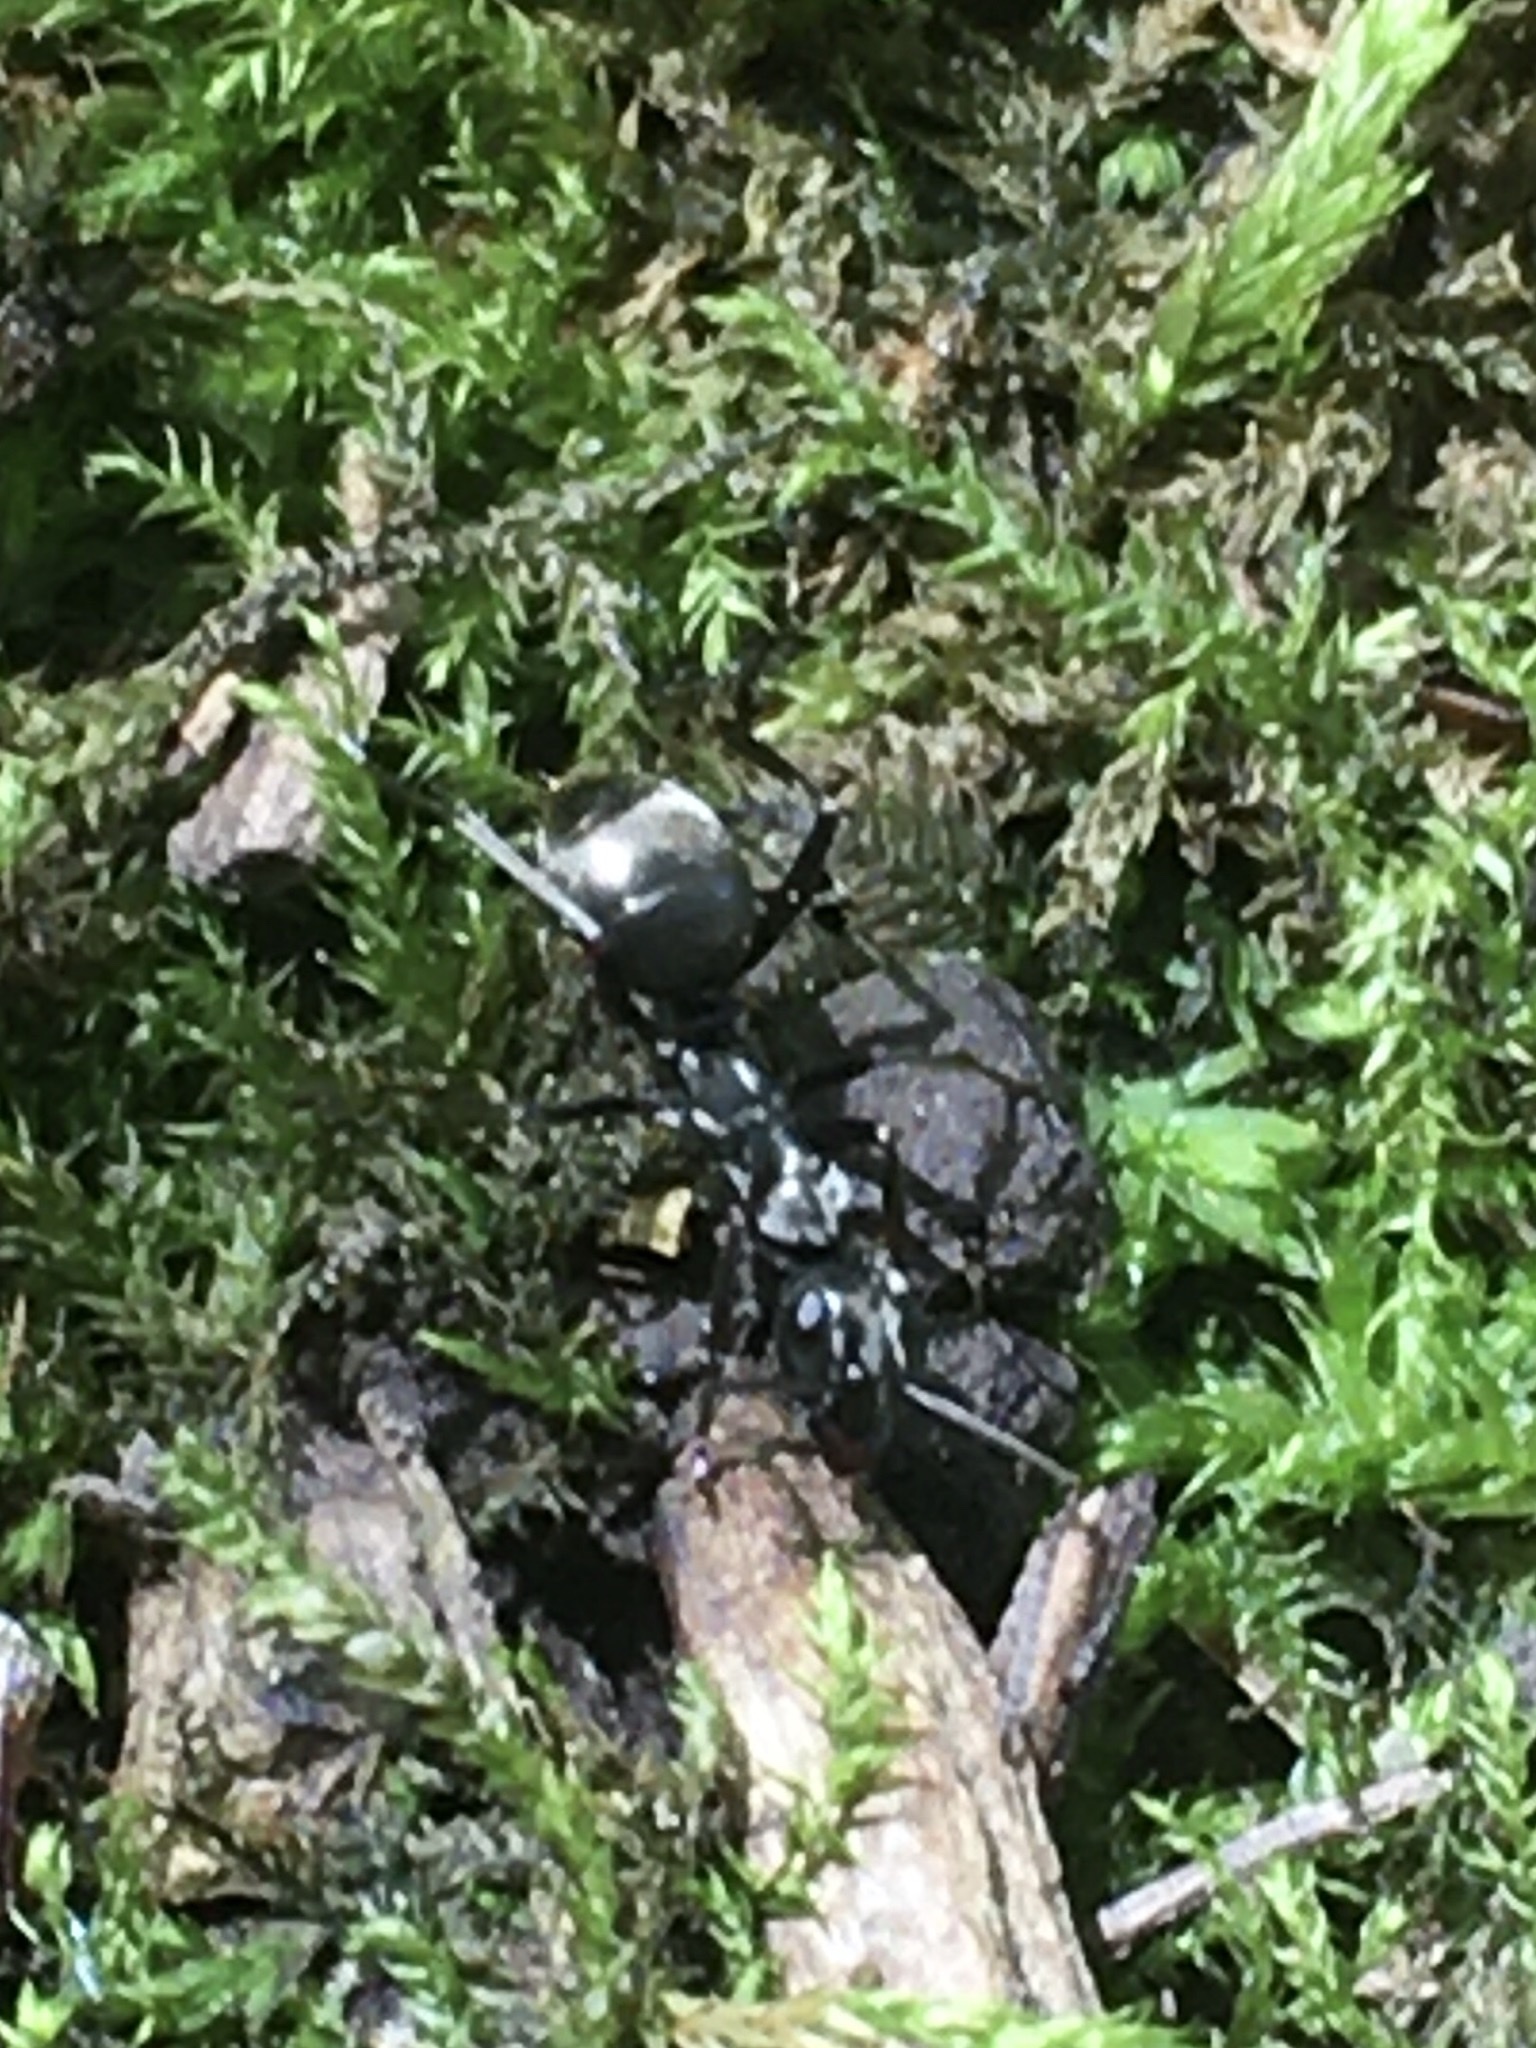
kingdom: Animalia
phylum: Arthropoda
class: Insecta
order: Hymenoptera
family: Formicidae
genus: Formica
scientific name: Formica
